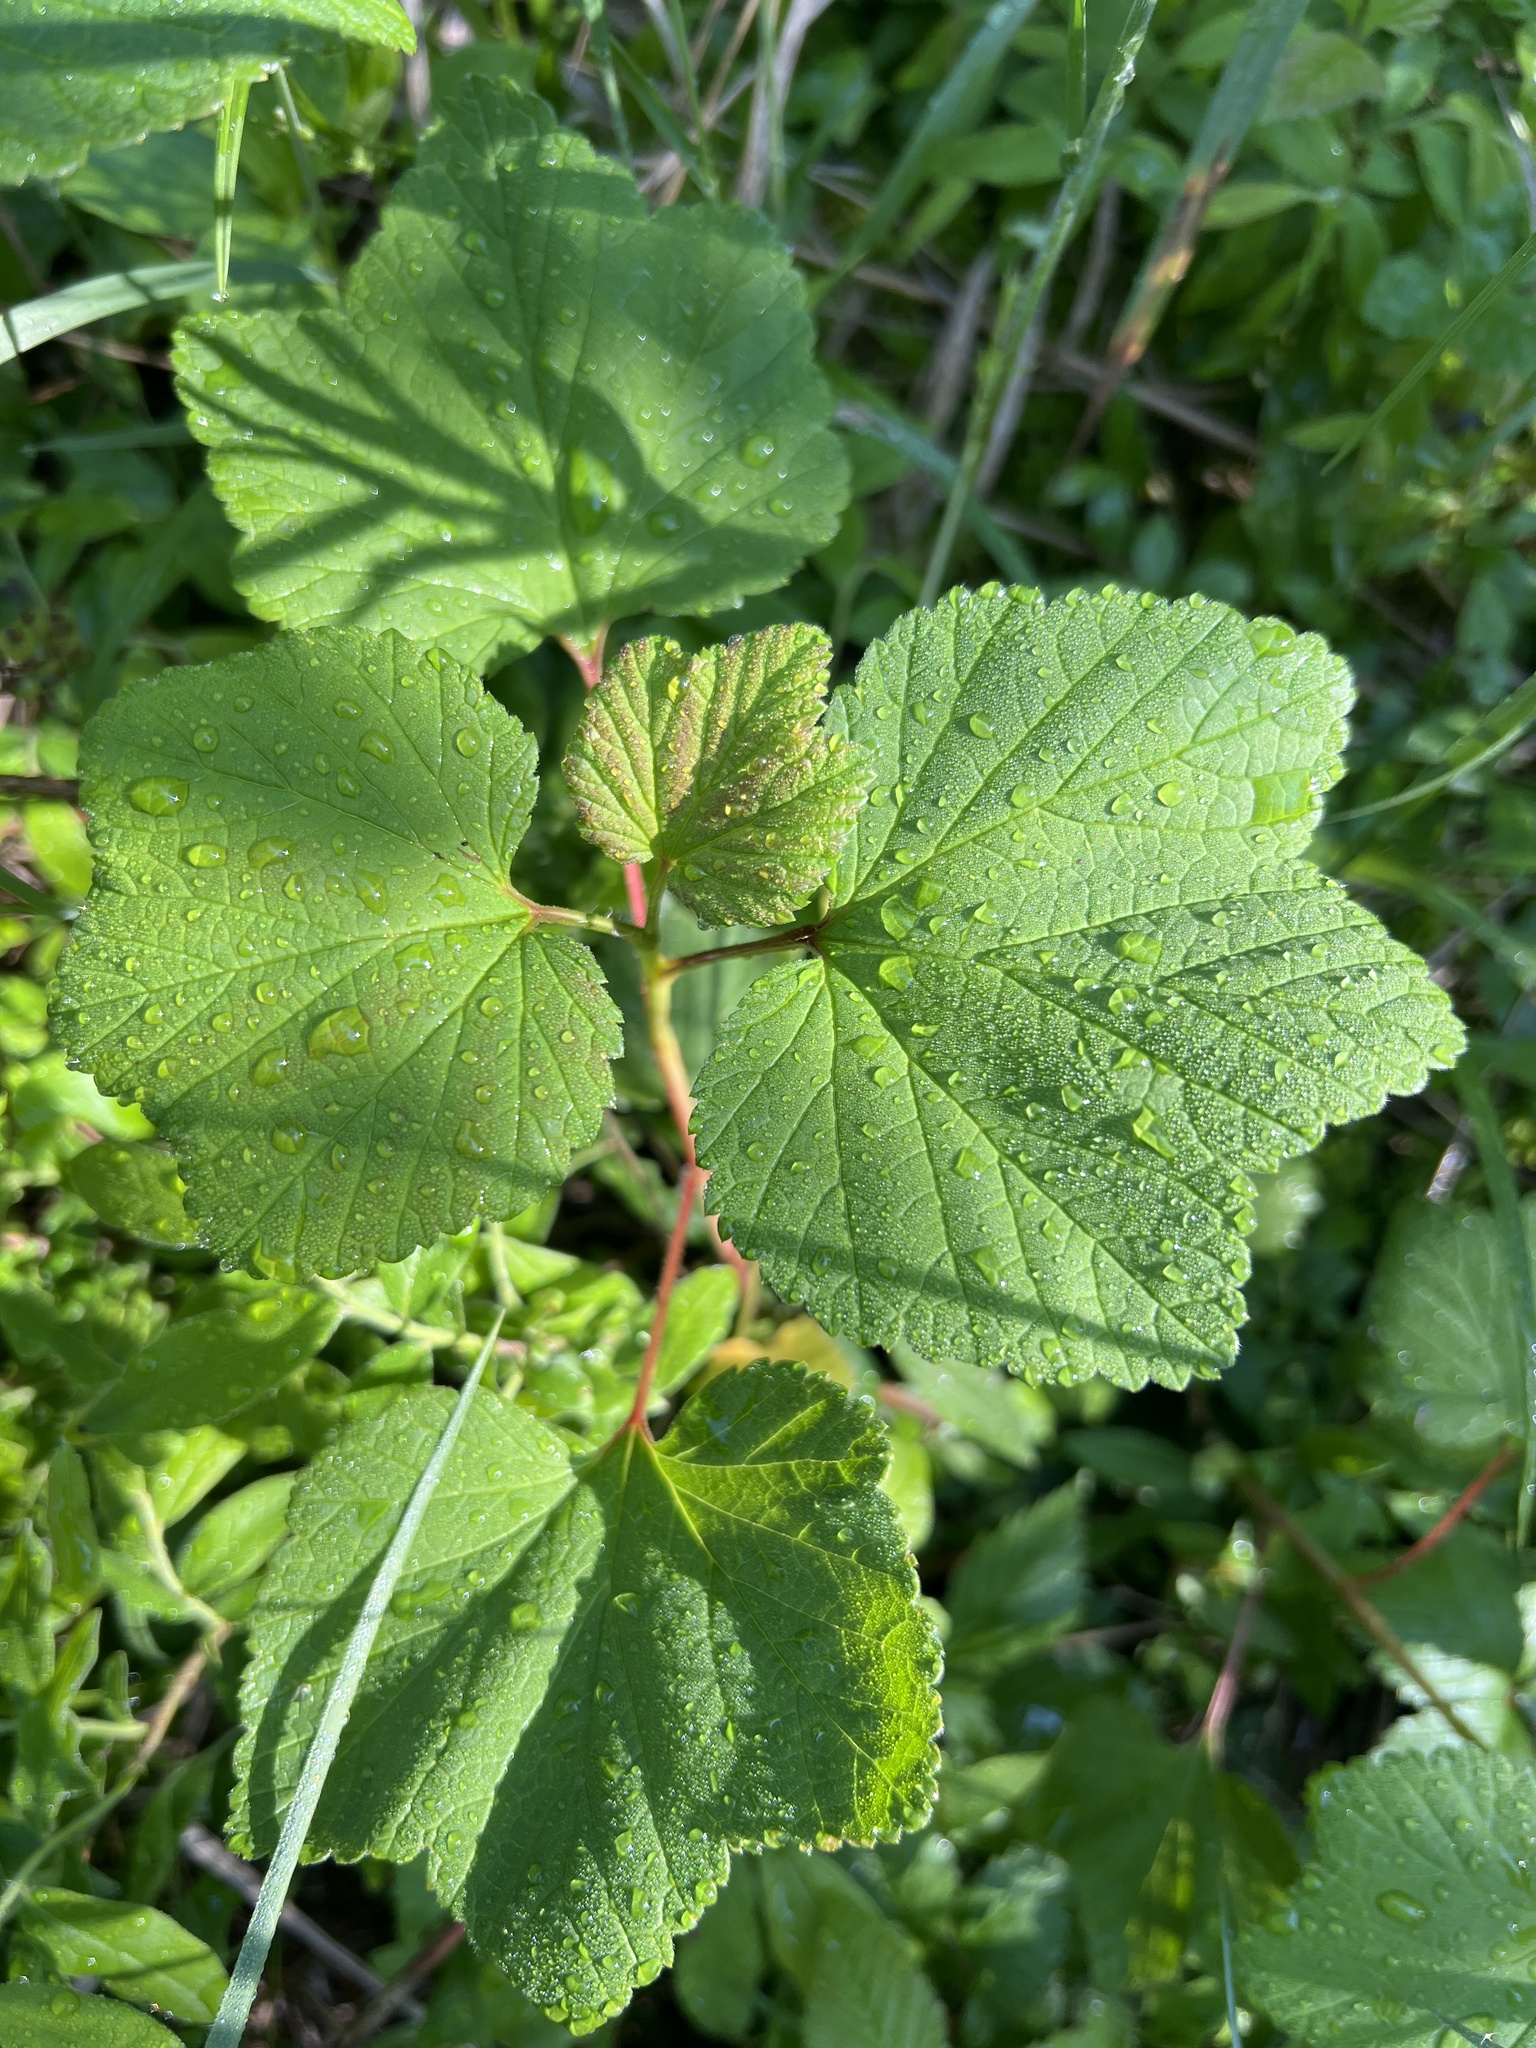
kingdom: Plantae
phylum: Tracheophyta
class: Magnoliopsida
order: Saxifragales
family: Grossulariaceae
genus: Ribes
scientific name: Ribes triste
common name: Swamp red currant
